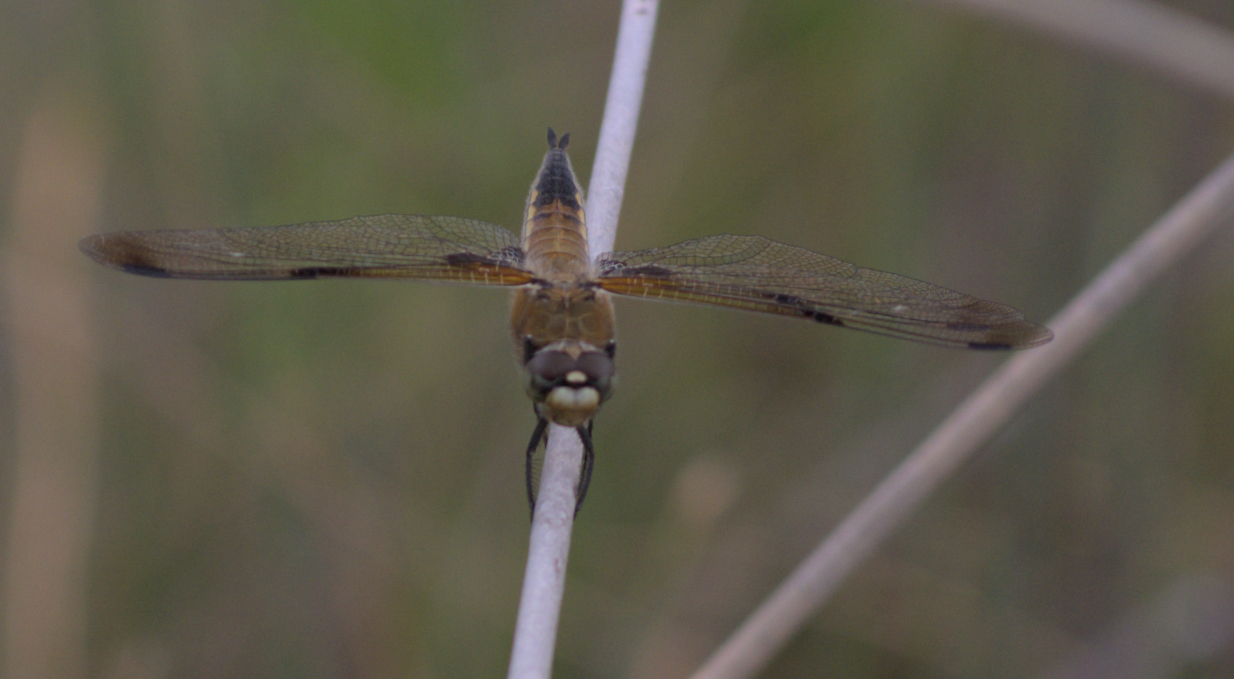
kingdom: Animalia
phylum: Arthropoda
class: Insecta
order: Odonata
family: Libellulidae
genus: Libellula
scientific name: Libellula quadrimaculata
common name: Four-spotted chaser
